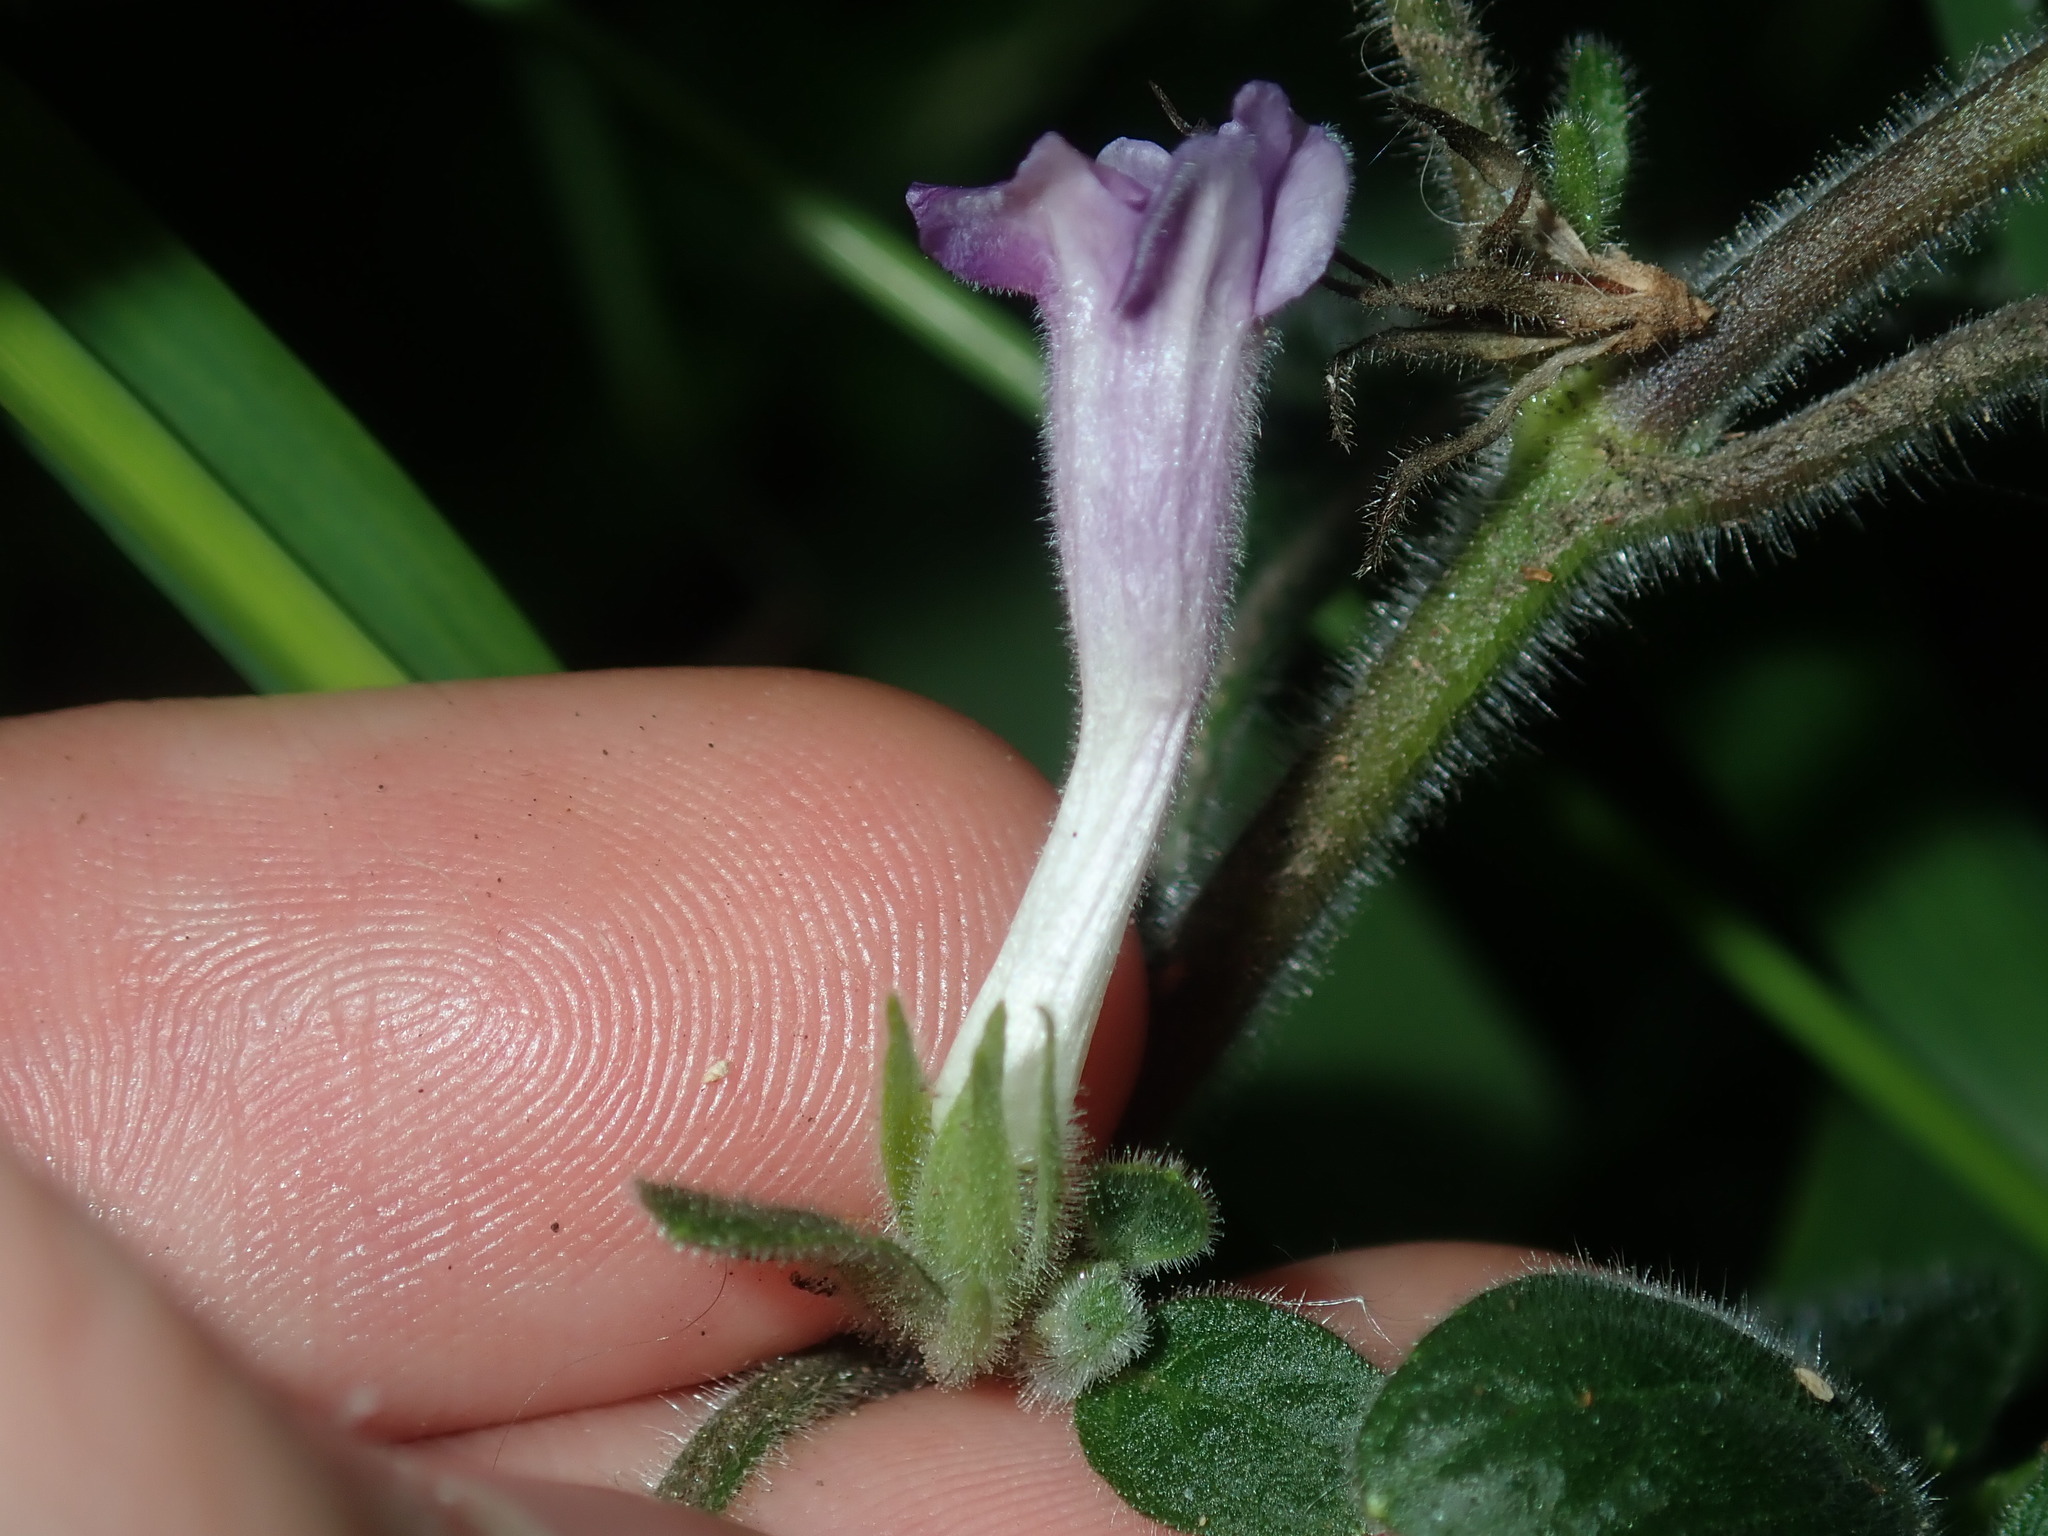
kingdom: Plantae
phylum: Tracheophyta
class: Magnoliopsida
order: Lamiales
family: Acanthaceae
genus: Ruellia
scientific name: Ruellia squarrosa
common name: Water bluebell
